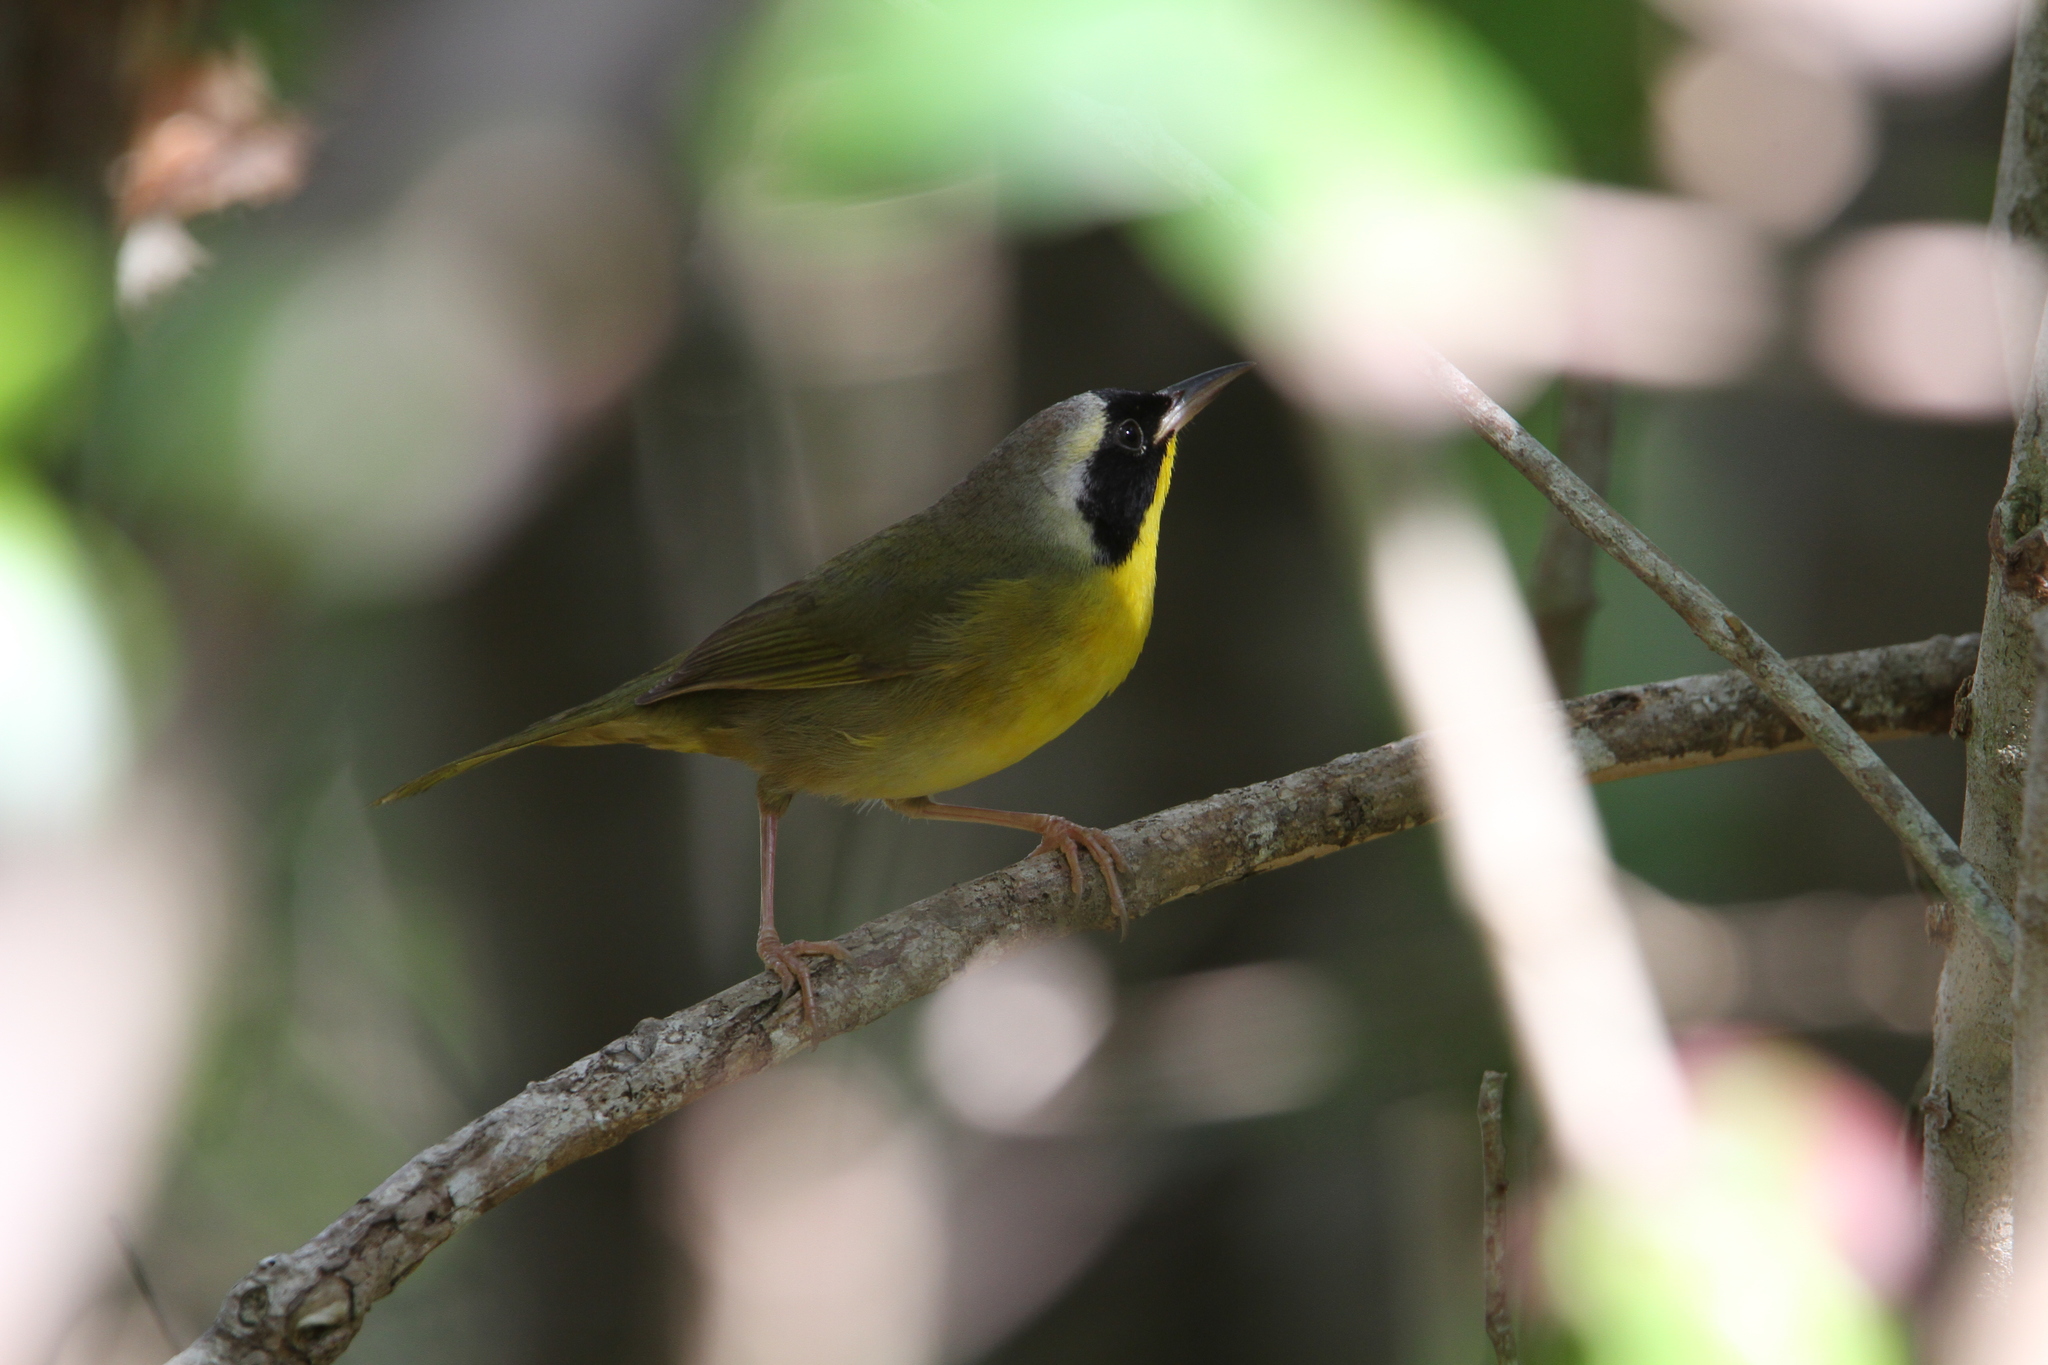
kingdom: Animalia
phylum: Chordata
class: Aves
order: Passeriformes
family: Parulidae
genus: Geothlypis
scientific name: Geothlypis rostrata
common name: Bahama yellowthroat
